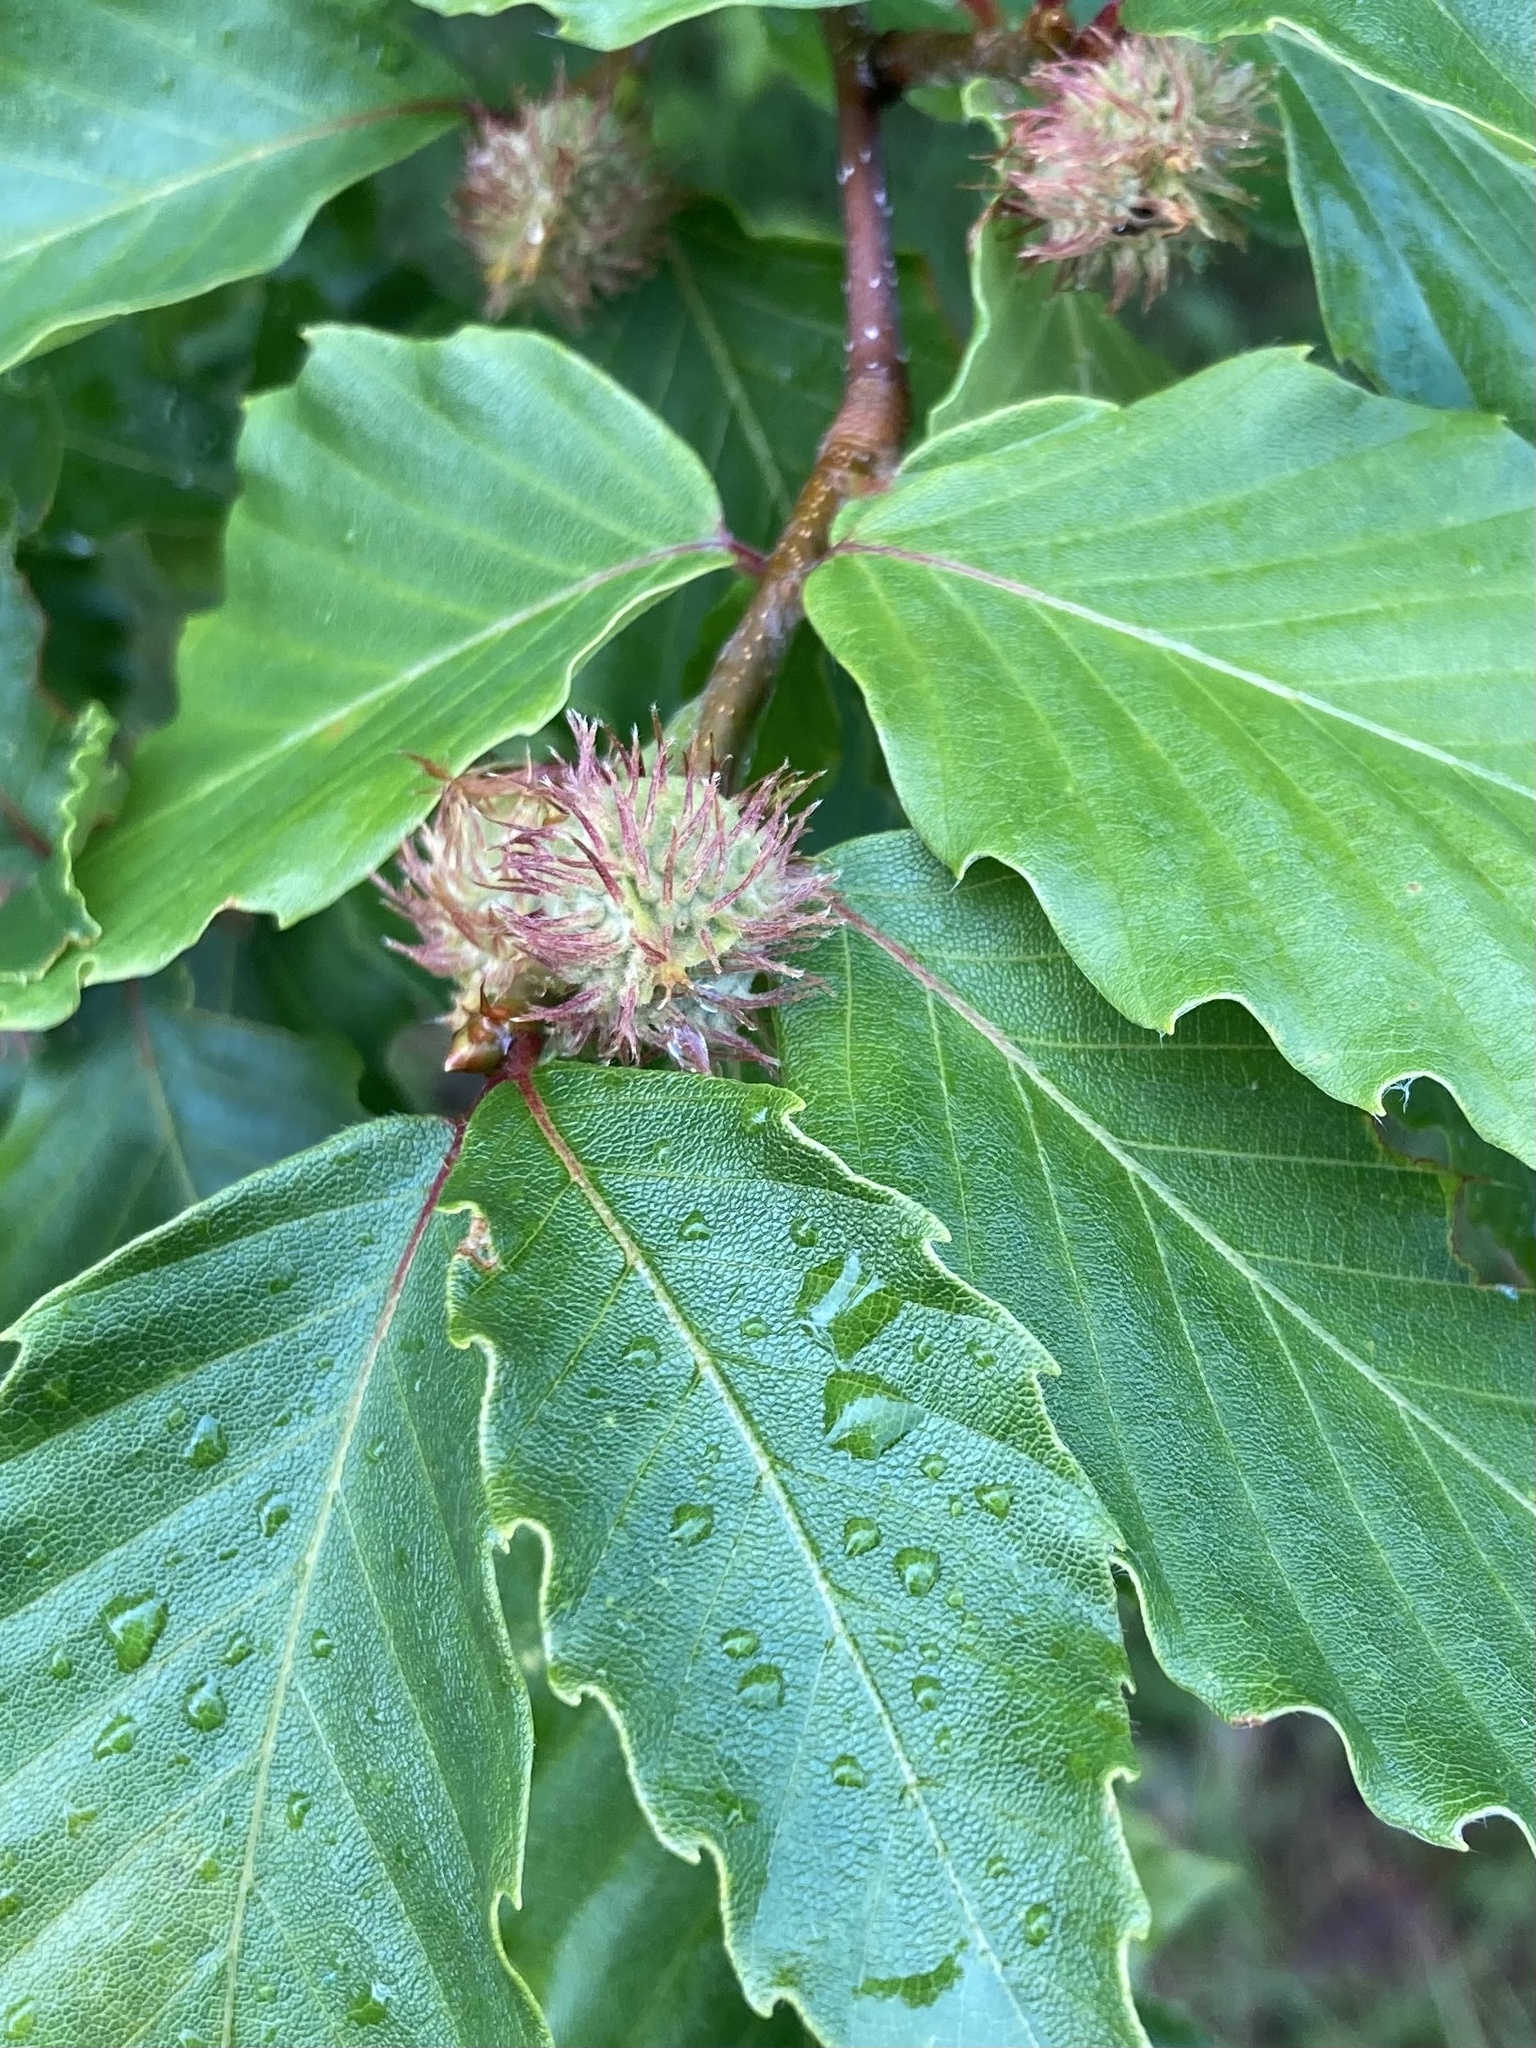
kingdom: Plantae
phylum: Tracheophyta
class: Magnoliopsida
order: Fagales
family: Fagaceae
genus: Fagus
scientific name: Fagus grandifolia
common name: American beech
